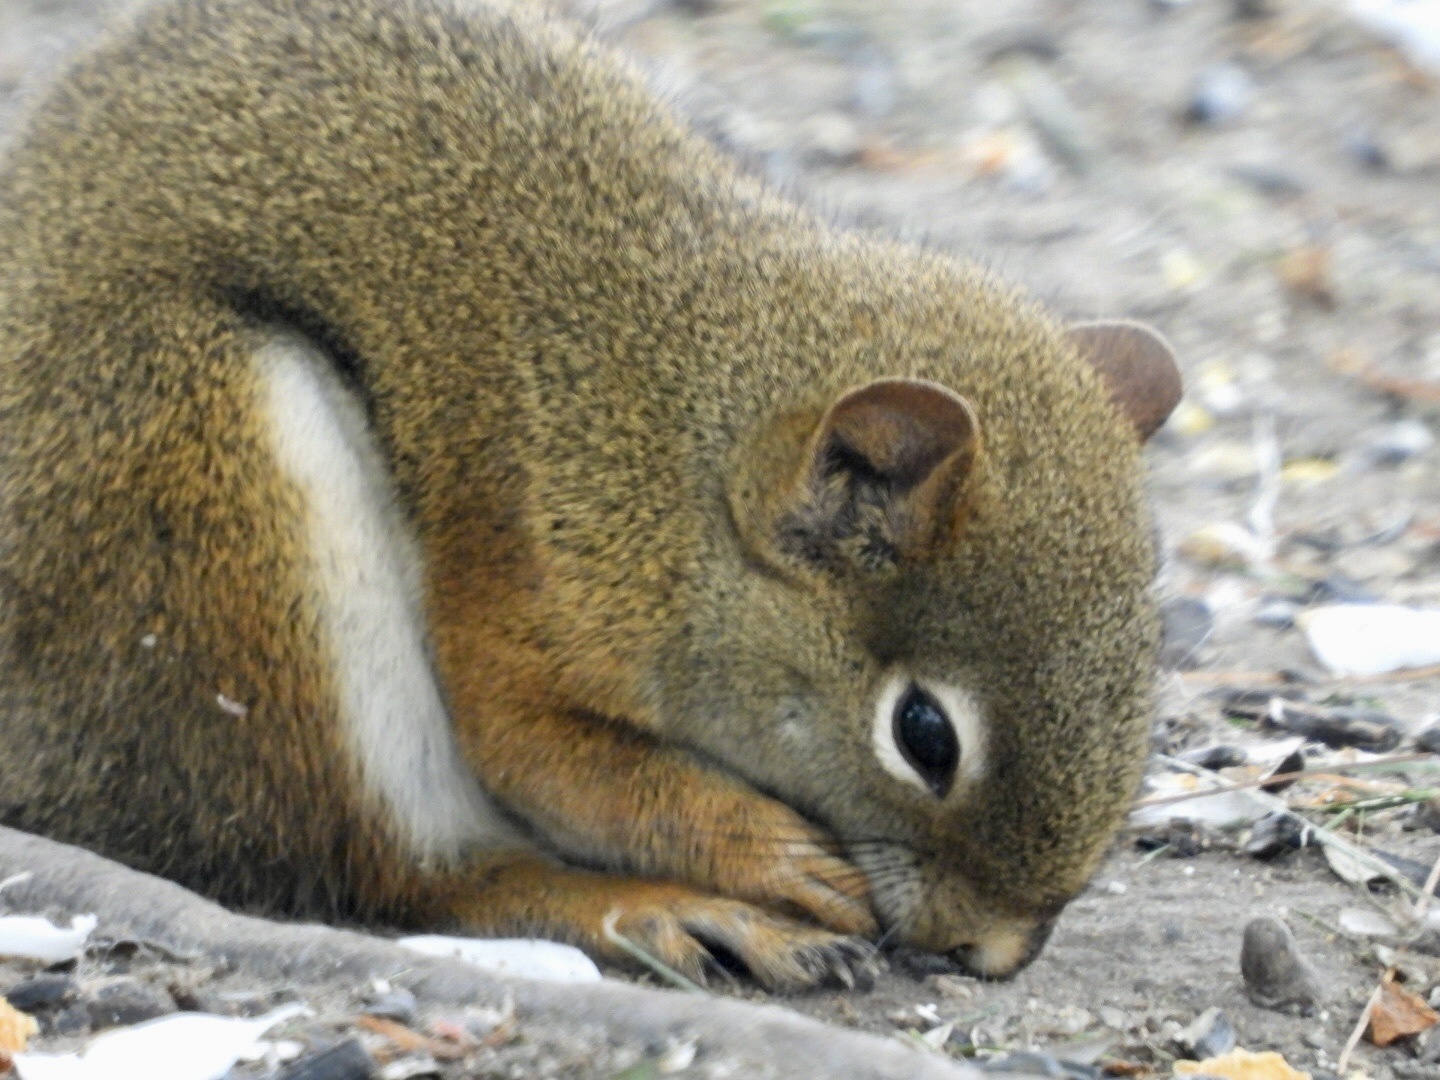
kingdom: Animalia
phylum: Chordata
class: Mammalia
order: Rodentia
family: Sciuridae
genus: Tamiasciurus
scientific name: Tamiasciurus hudsonicus
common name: Red squirrel
